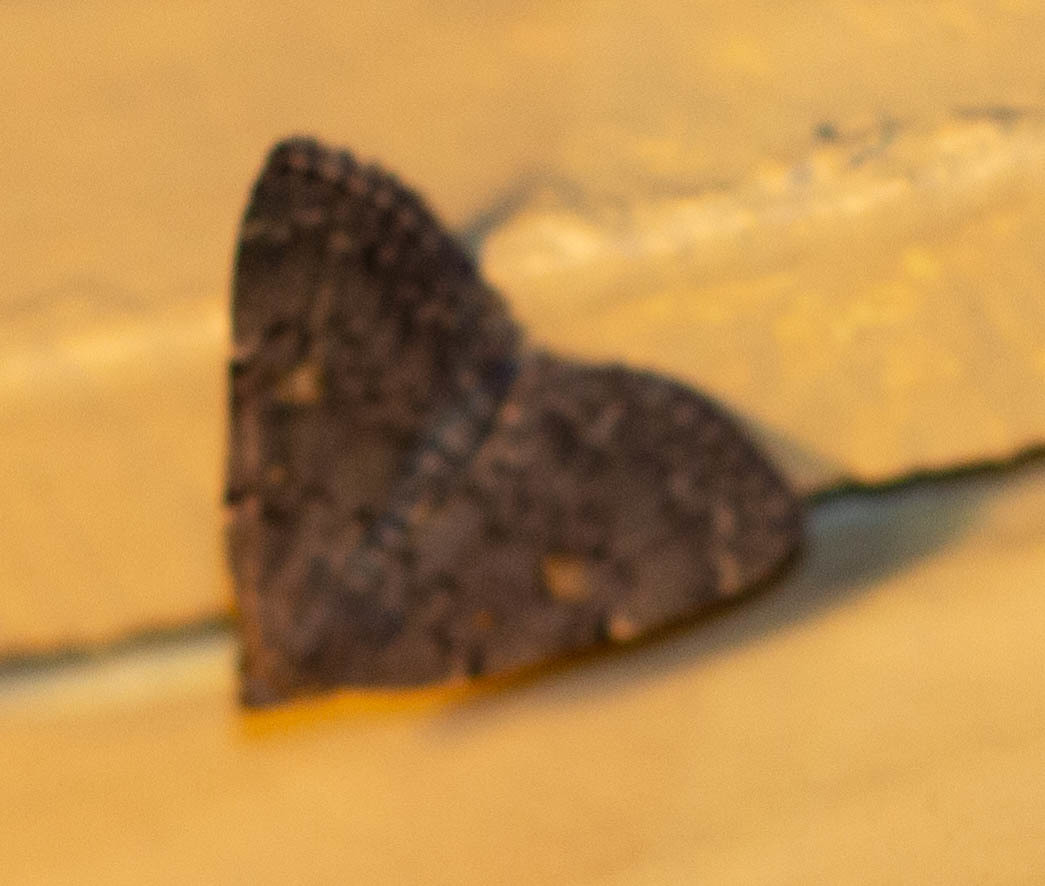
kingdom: Animalia
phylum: Arthropoda
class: Insecta
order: Lepidoptera
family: Erebidae
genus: Idia
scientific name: Idia aemula
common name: Common idia moth
